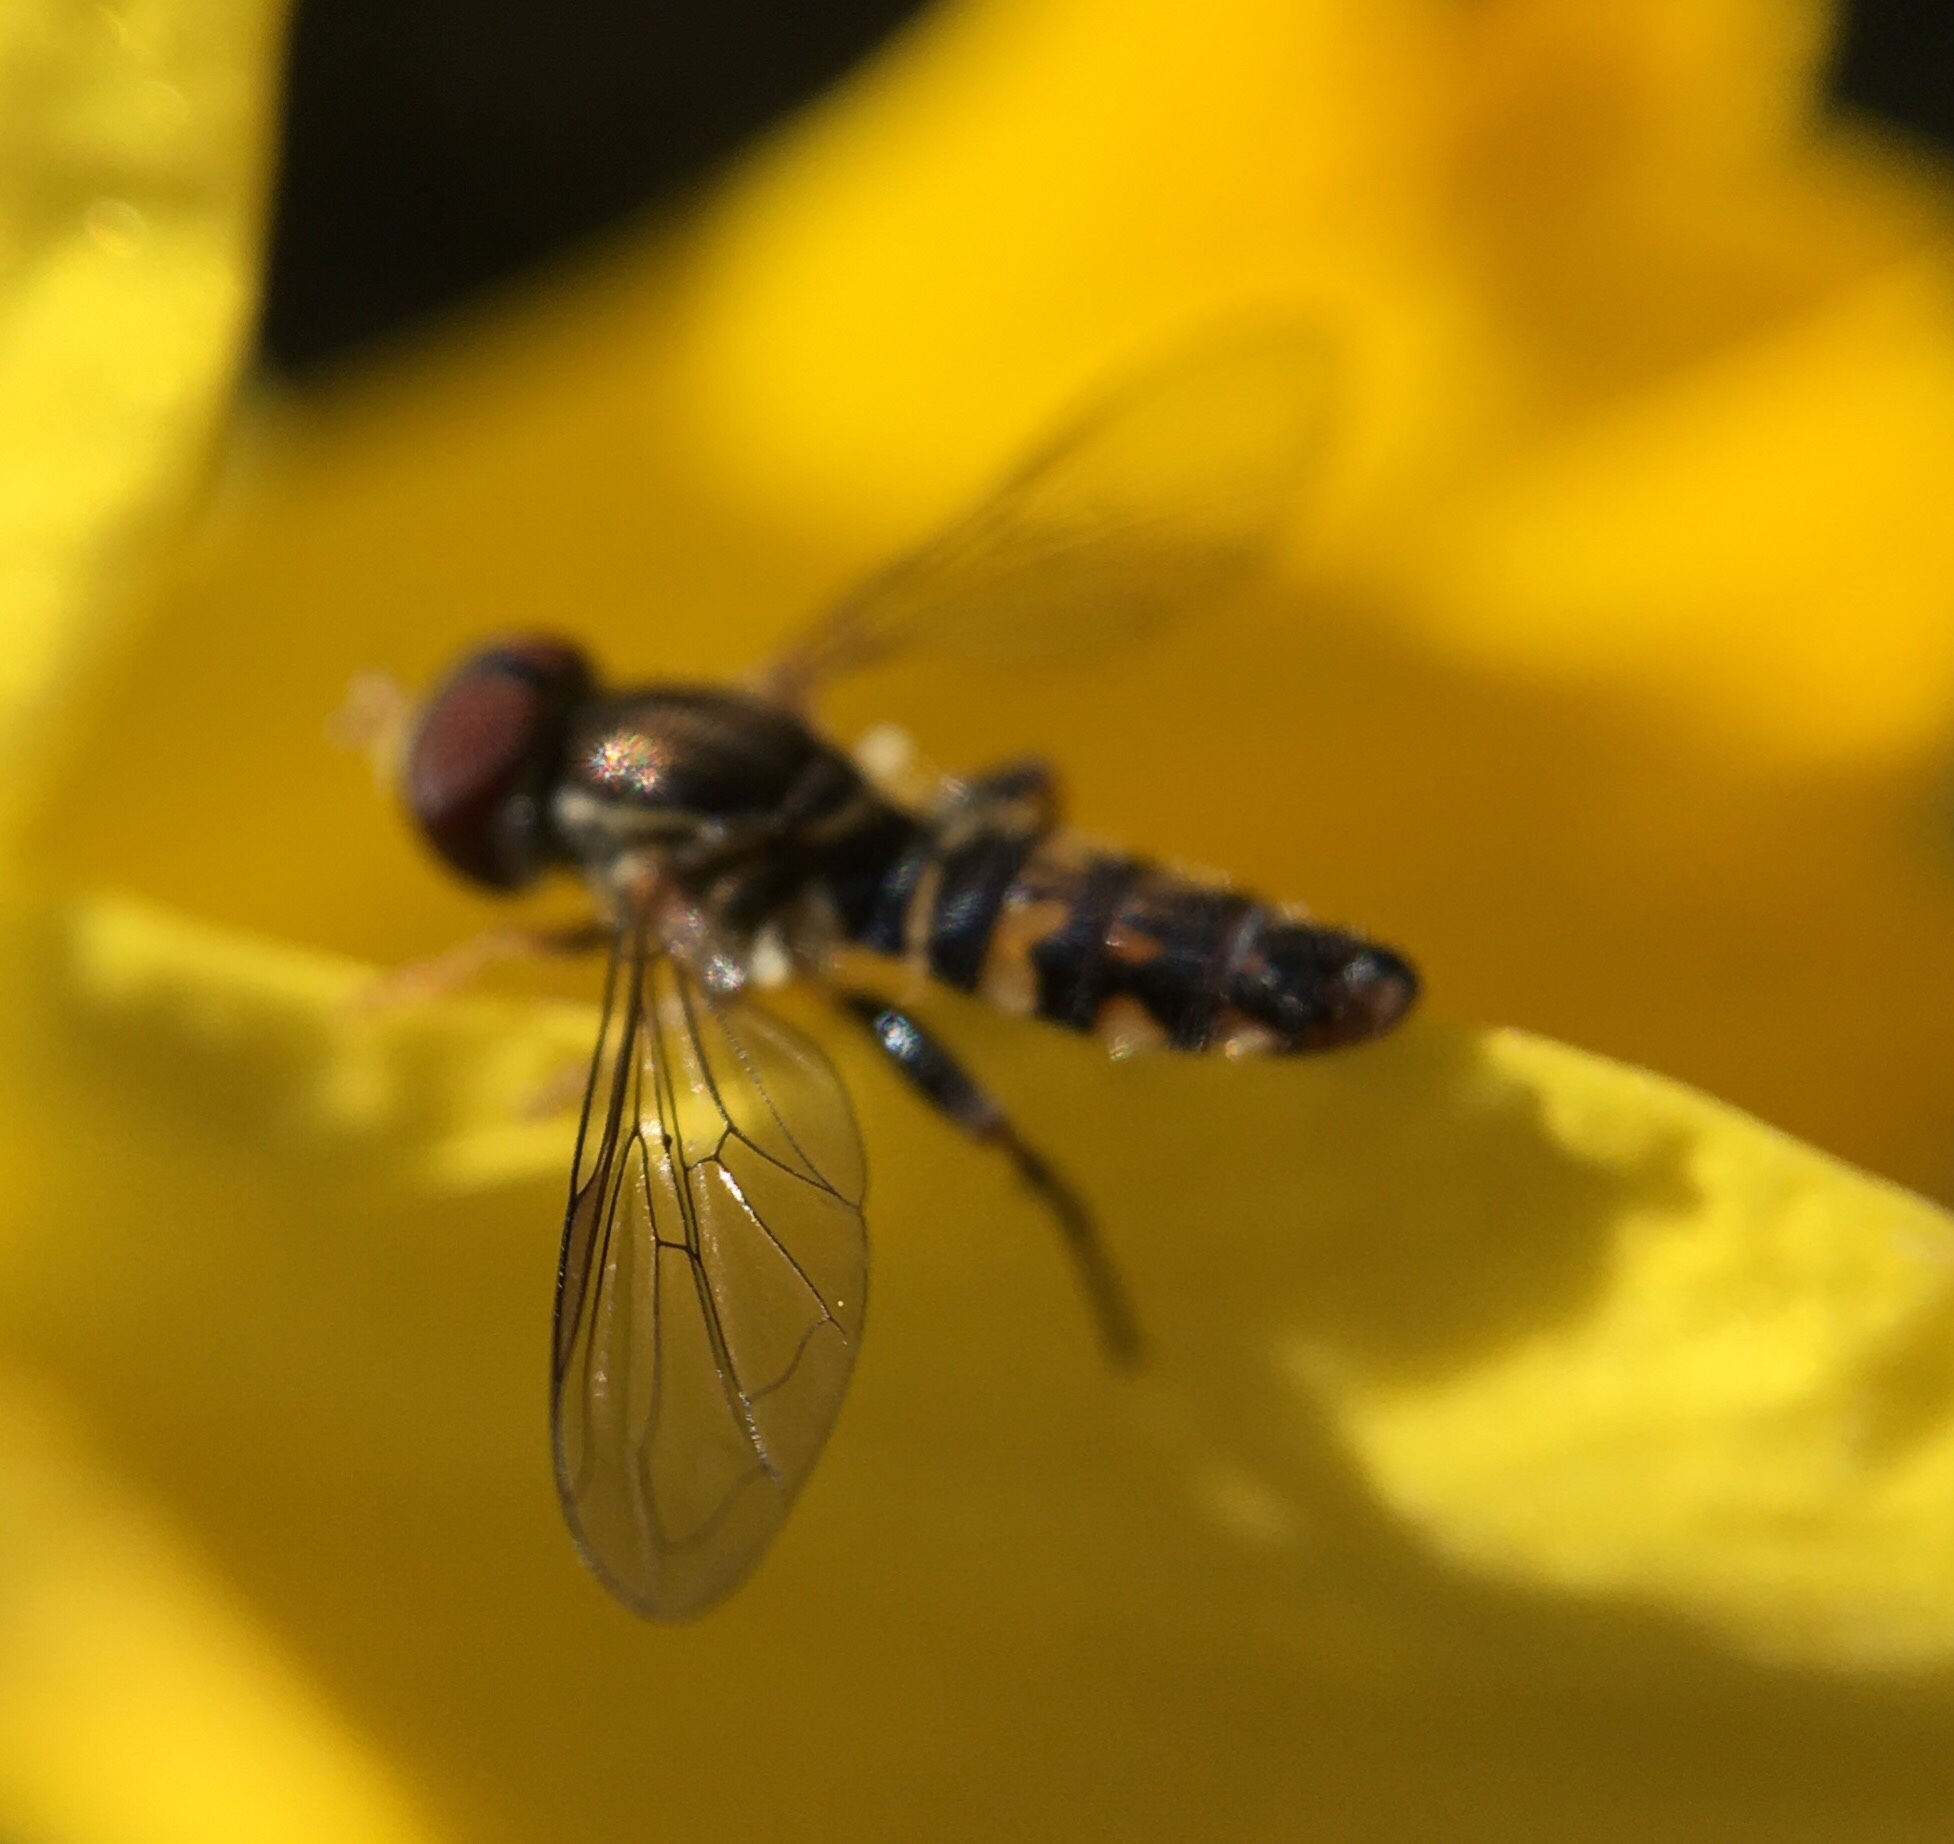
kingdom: Animalia
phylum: Arthropoda
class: Insecta
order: Diptera
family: Syrphidae
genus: Toxomerus
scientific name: Toxomerus geminatus
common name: Eastern calligrapher
